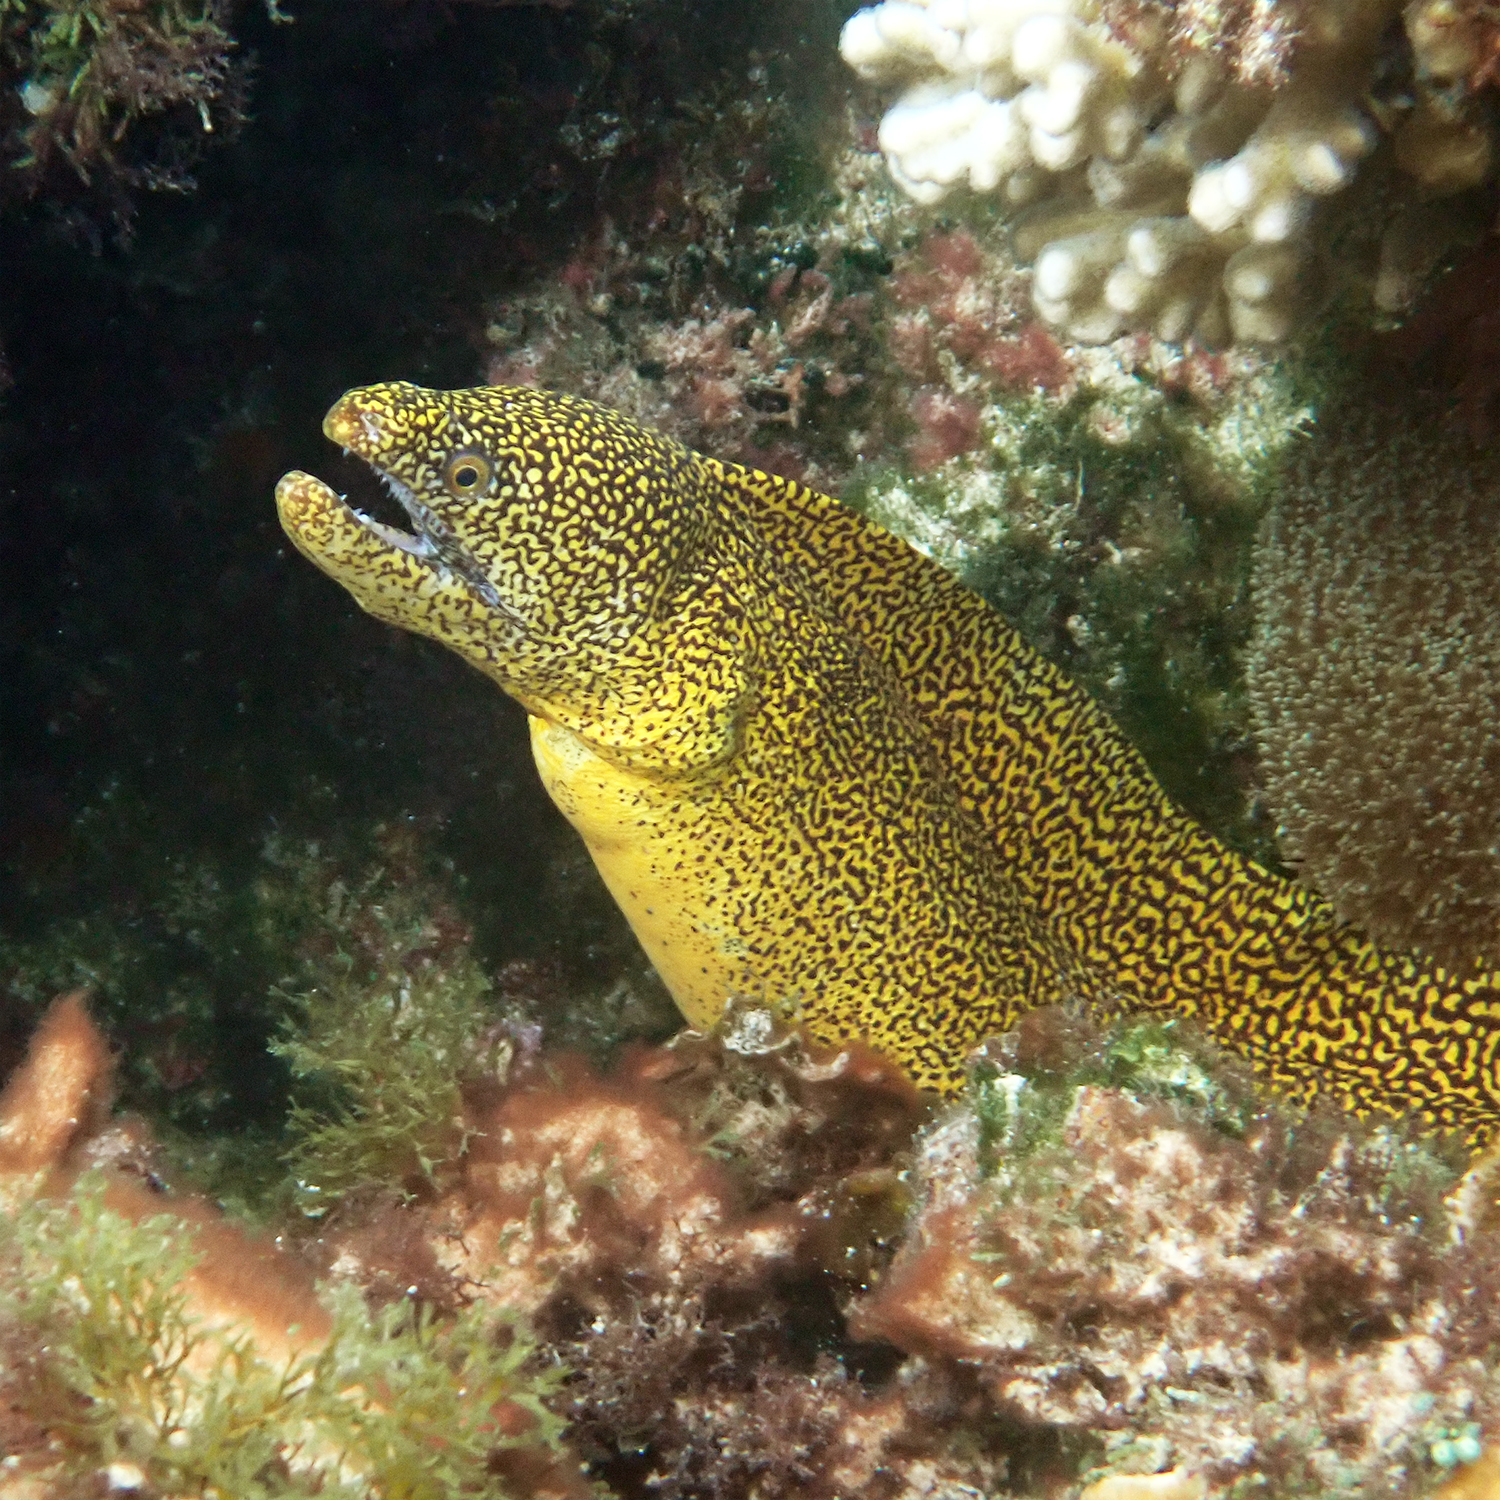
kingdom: Animalia
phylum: Chordata
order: Anguilliformes
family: Muraenidae
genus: Gymnothorax
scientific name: Gymnothorax eurostus
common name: Stout moray
